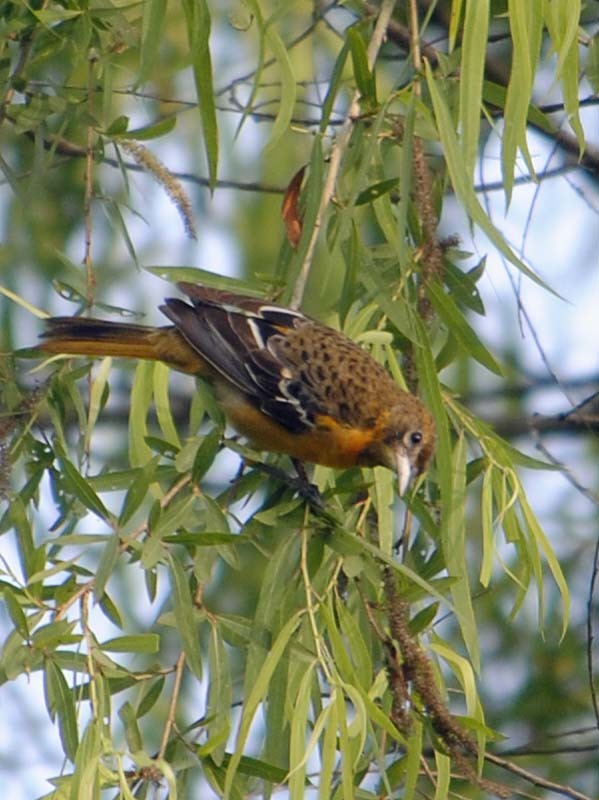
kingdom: Animalia
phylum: Chordata
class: Aves
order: Passeriformes
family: Icteridae
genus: Icterus
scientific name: Icterus galbula
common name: Baltimore oriole
